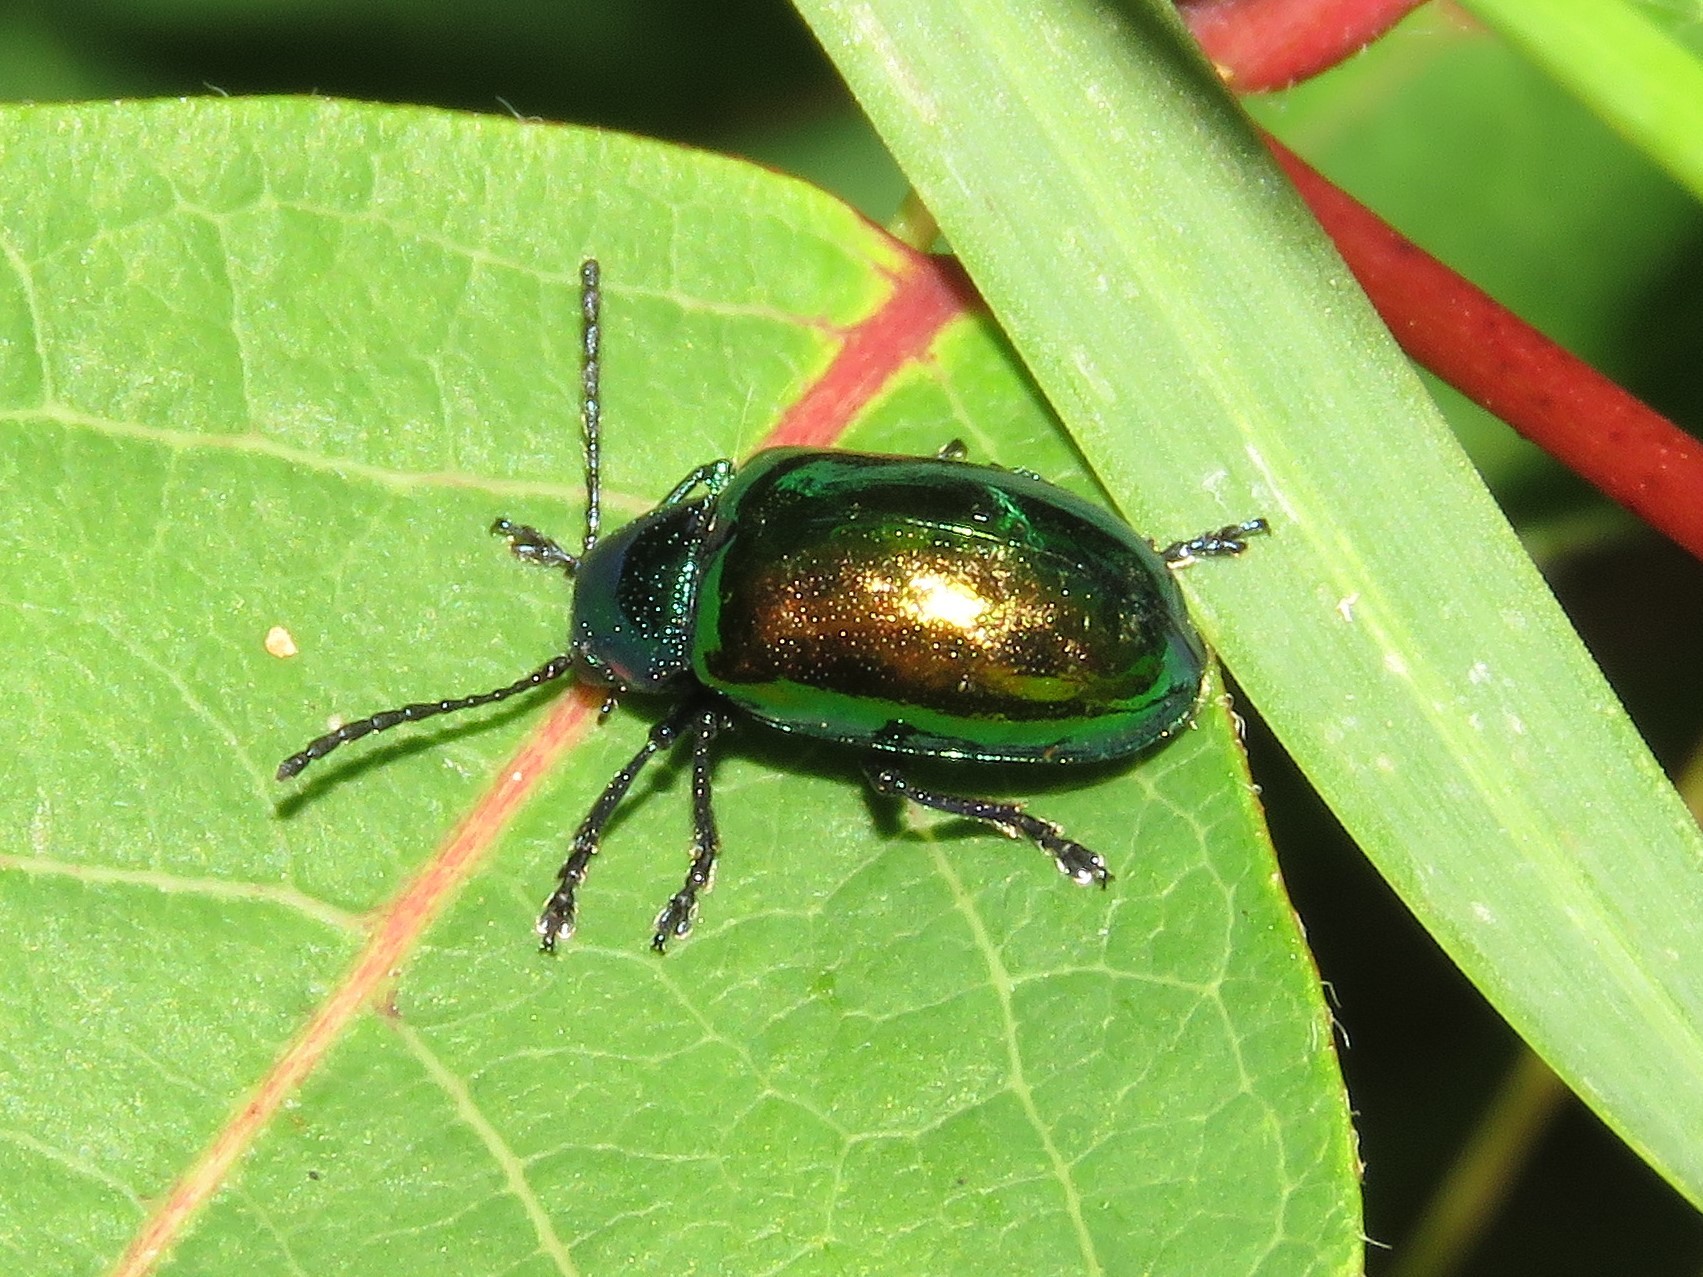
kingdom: Animalia
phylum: Arthropoda
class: Insecta
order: Coleoptera
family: Chrysomelidae
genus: Chrysochus
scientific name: Chrysochus auratus
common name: Dogbane leaf beetle
